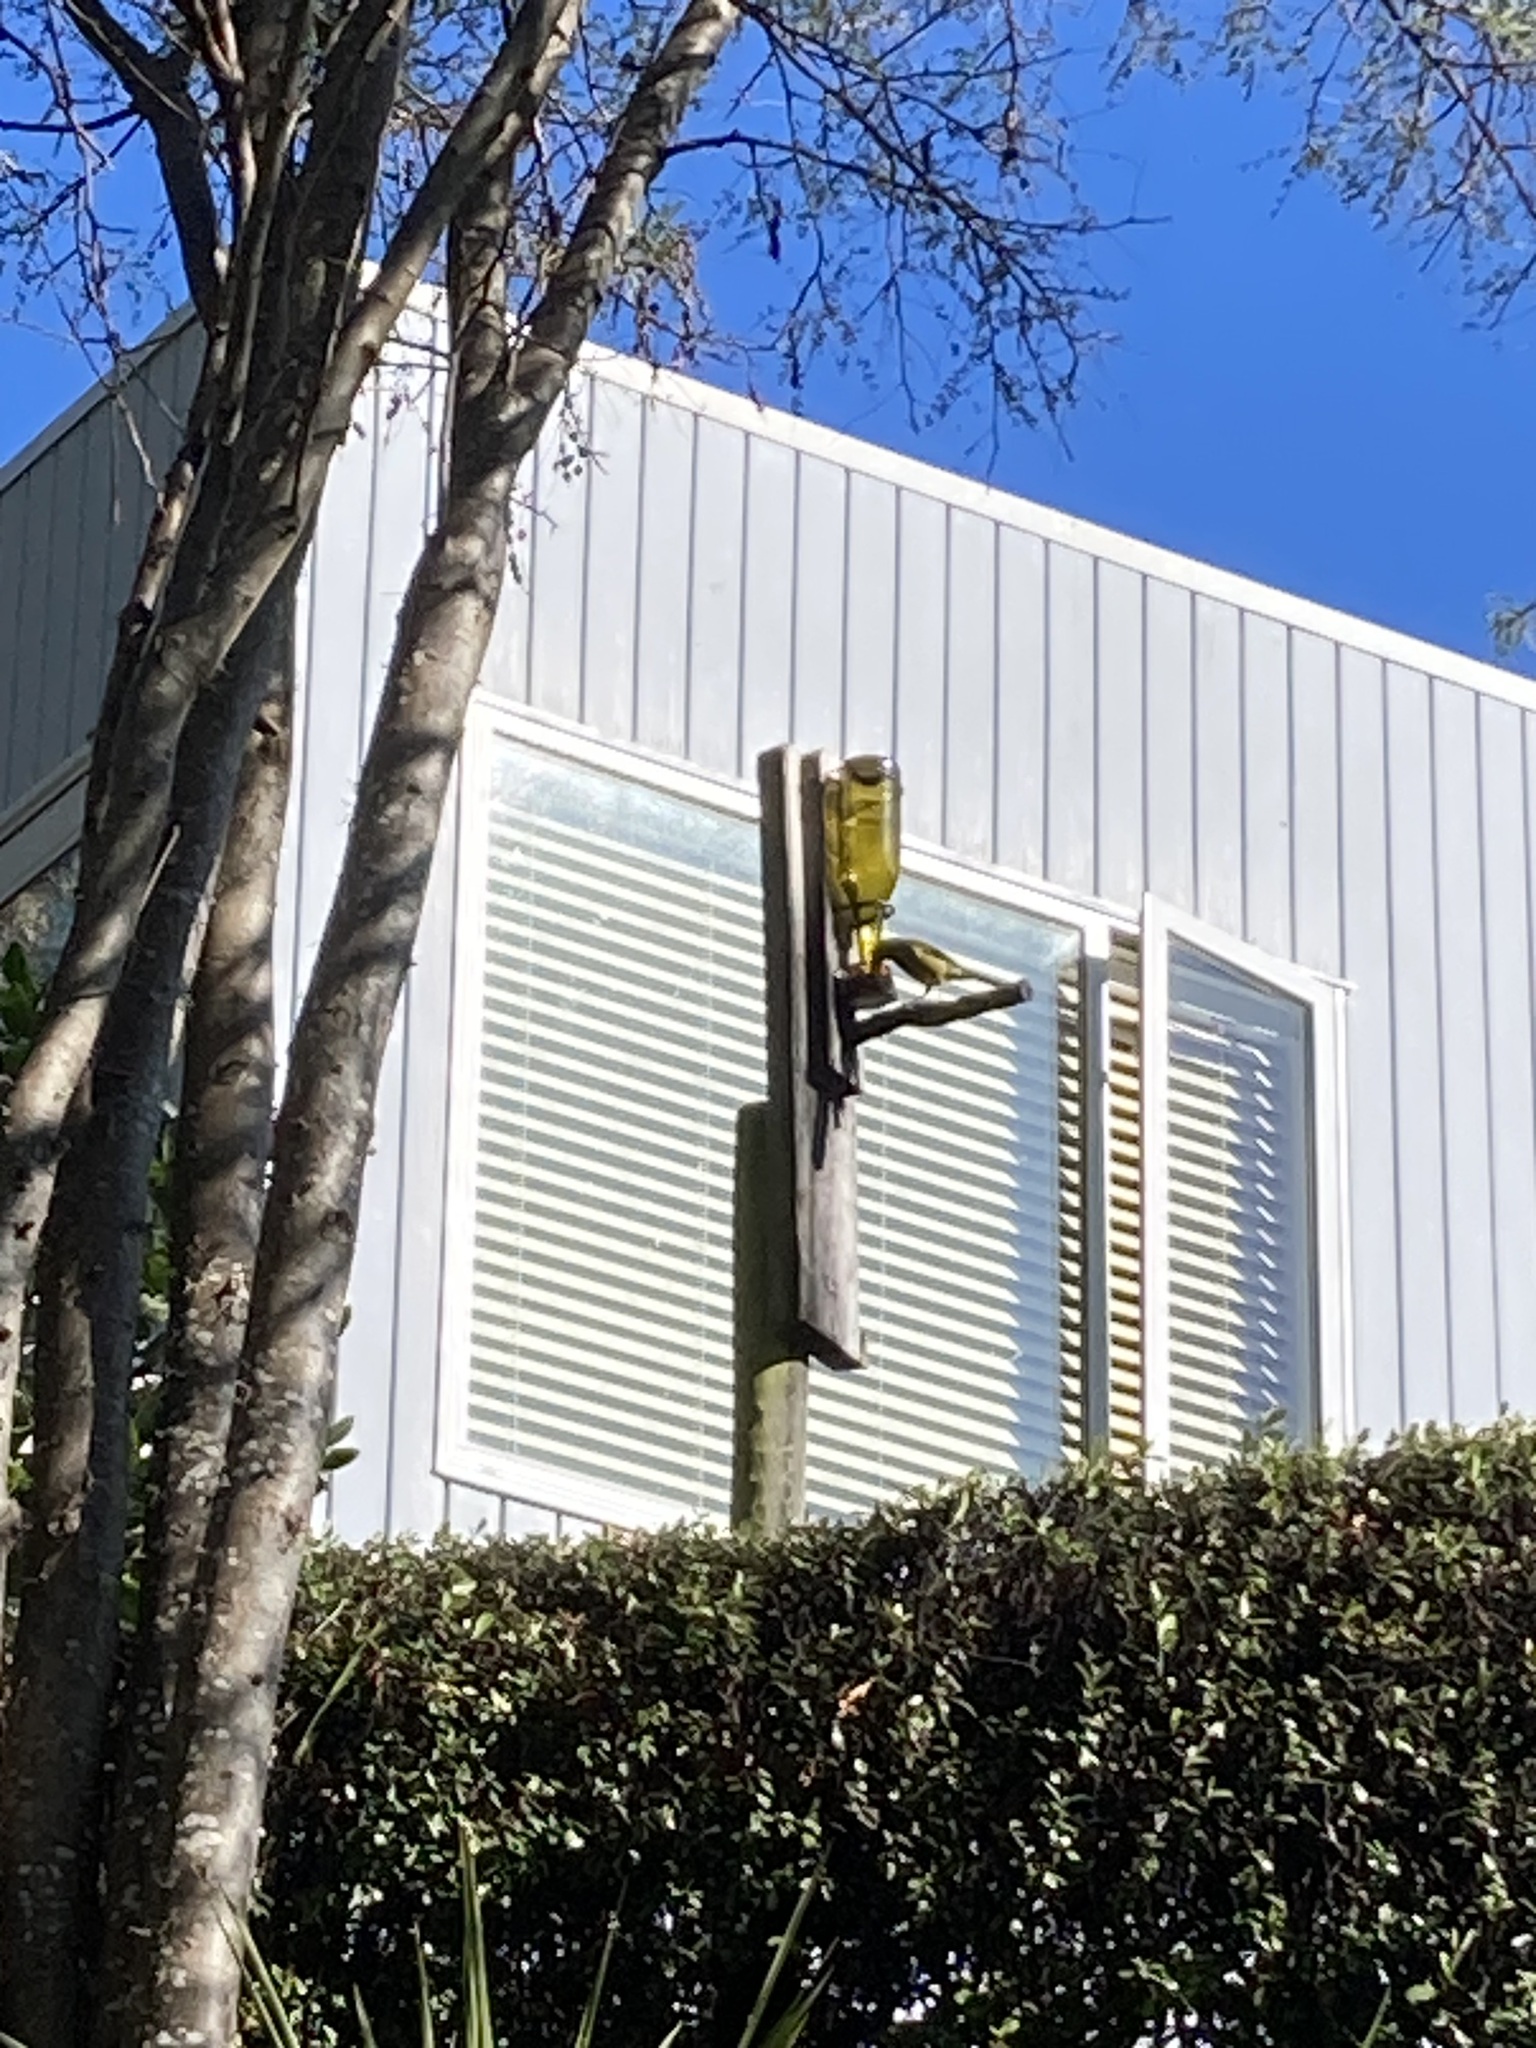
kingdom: Animalia
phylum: Chordata
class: Aves
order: Passeriformes
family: Meliphagidae
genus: Anthornis
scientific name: Anthornis melanura
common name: New zealand bellbird
